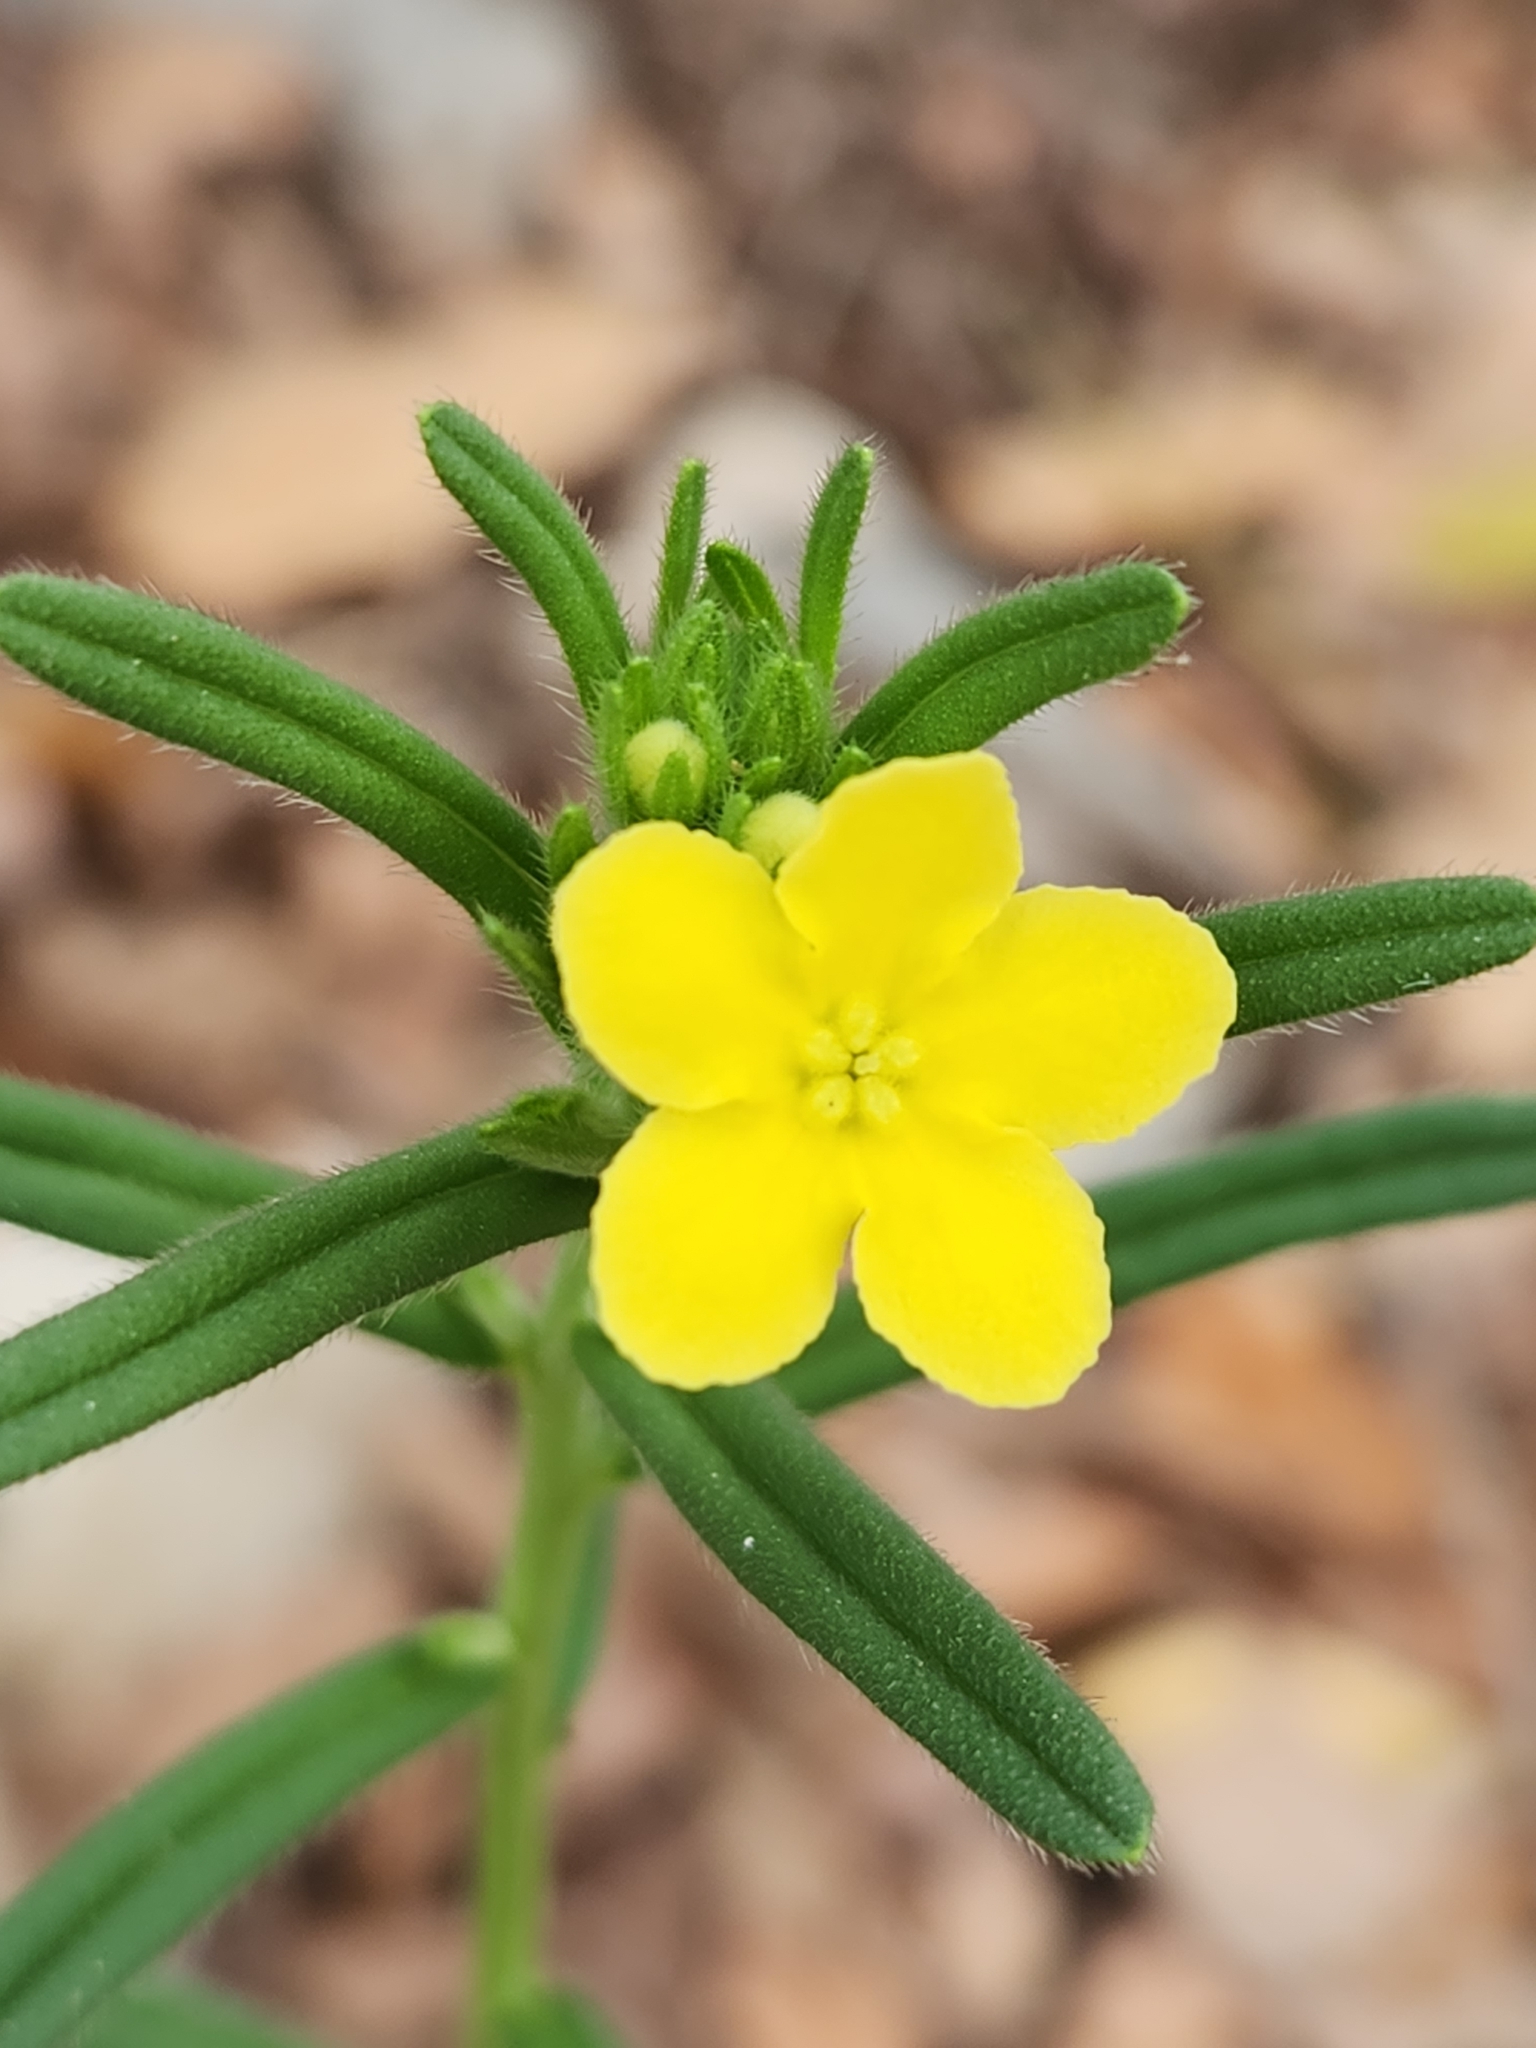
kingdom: Plantae
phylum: Tracheophyta
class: Magnoliopsida
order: Boraginales
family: Boraginaceae
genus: Lithospermum
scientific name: Lithospermum mirabile
